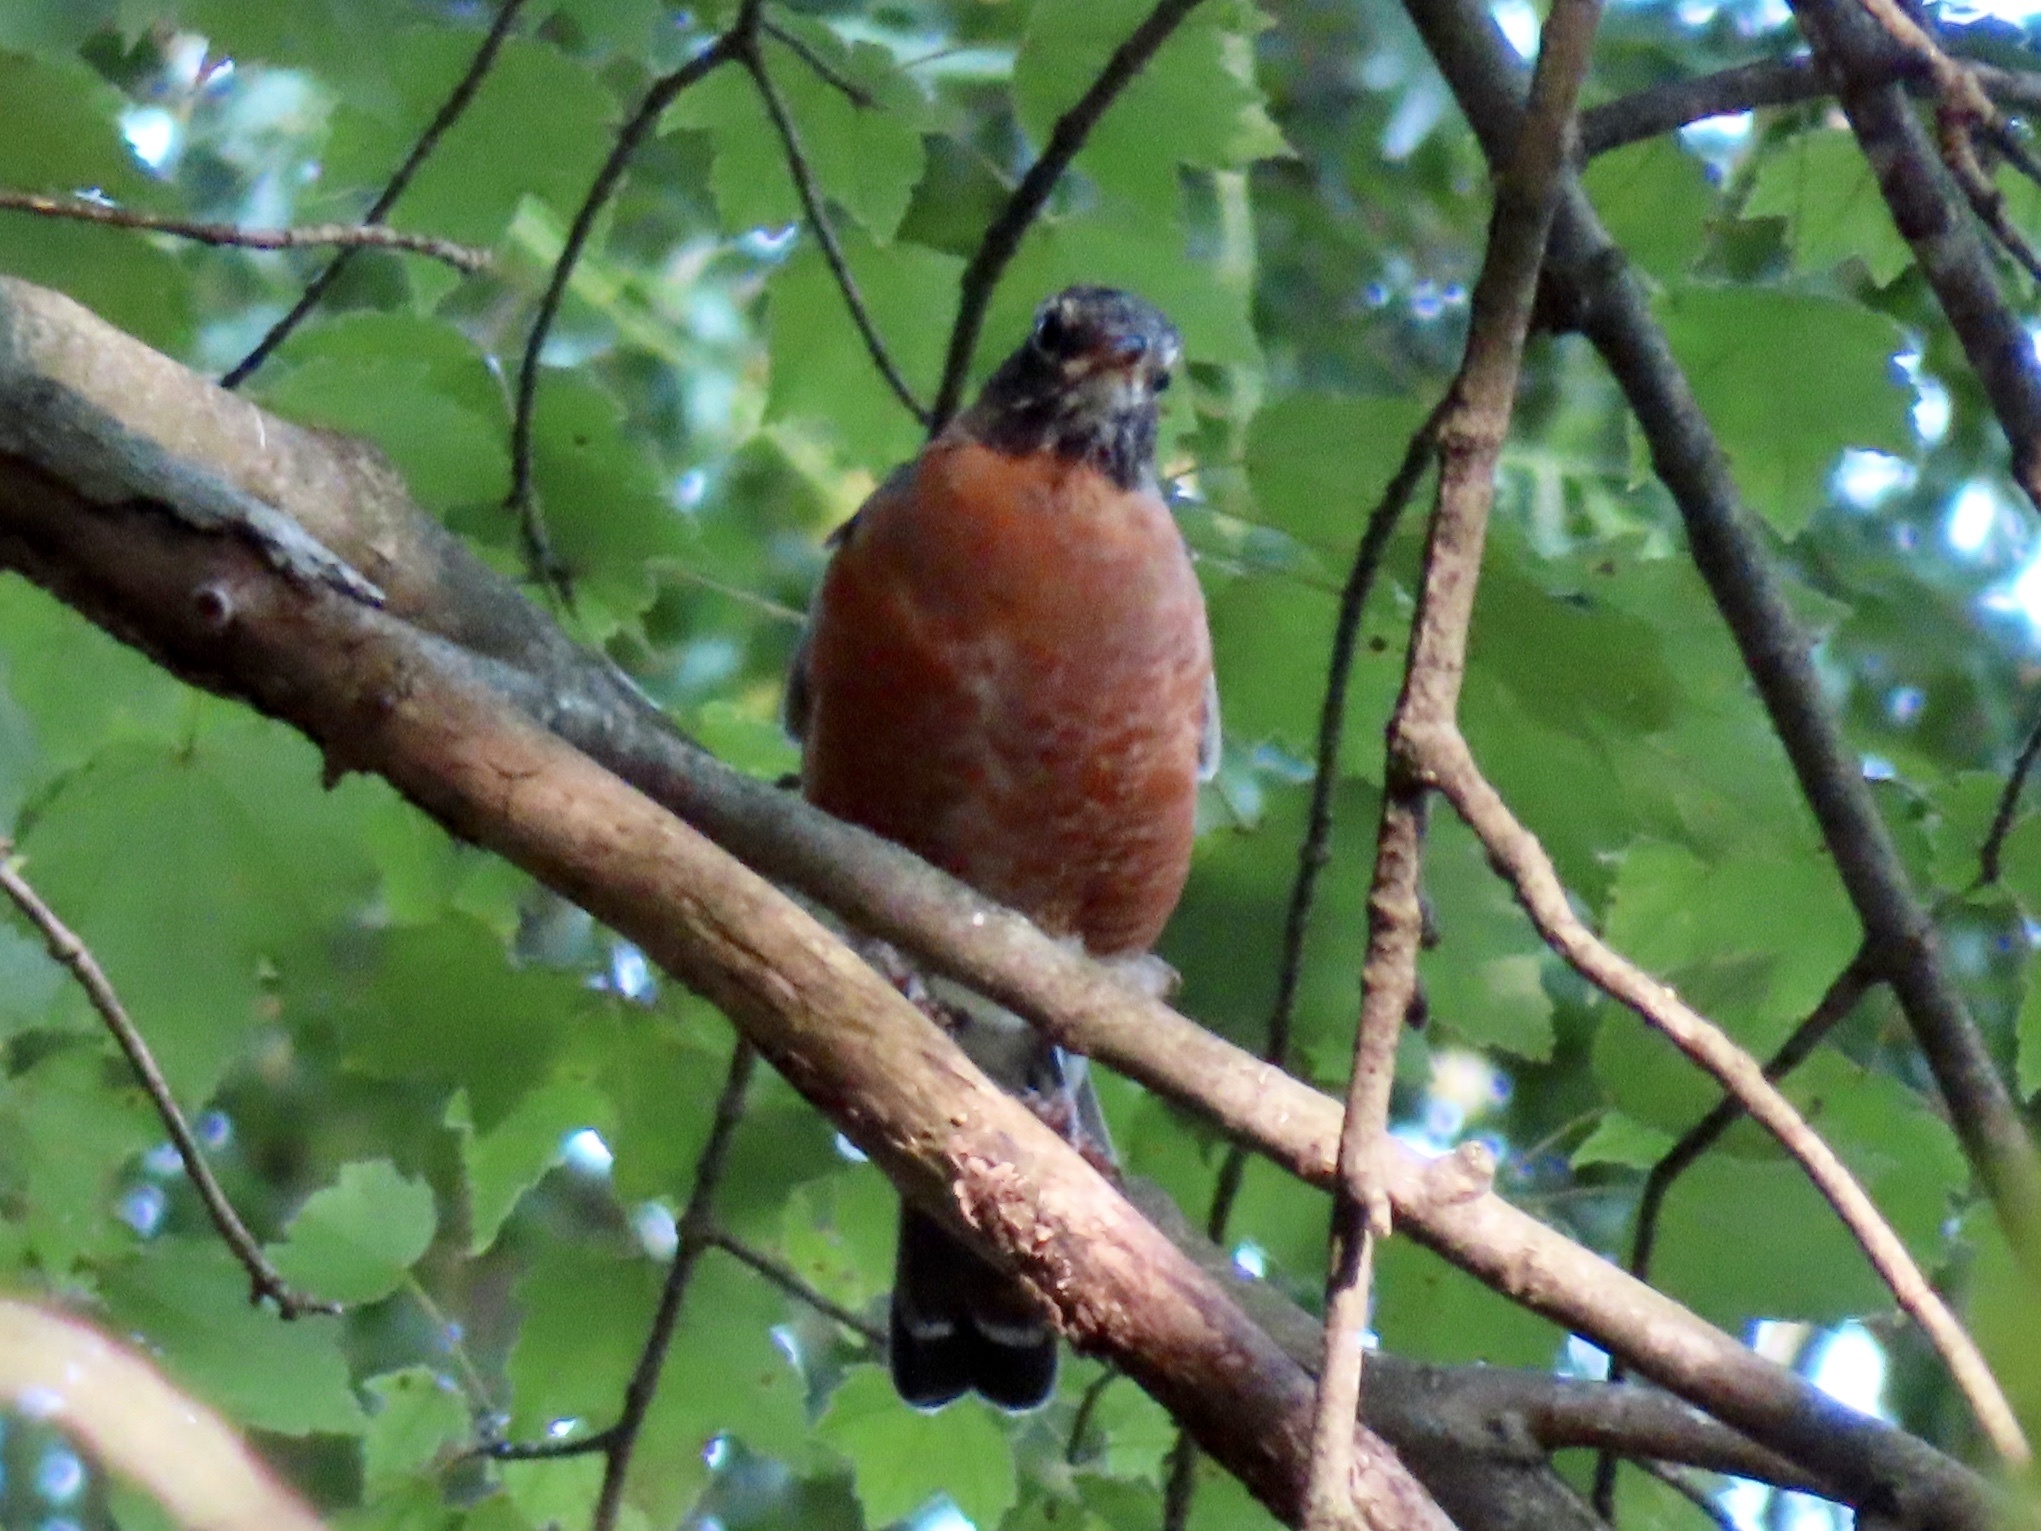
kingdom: Animalia
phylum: Chordata
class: Aves
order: Passeriformes
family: Turdidae
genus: Turdus
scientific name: Turdus migratorius
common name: American robin
